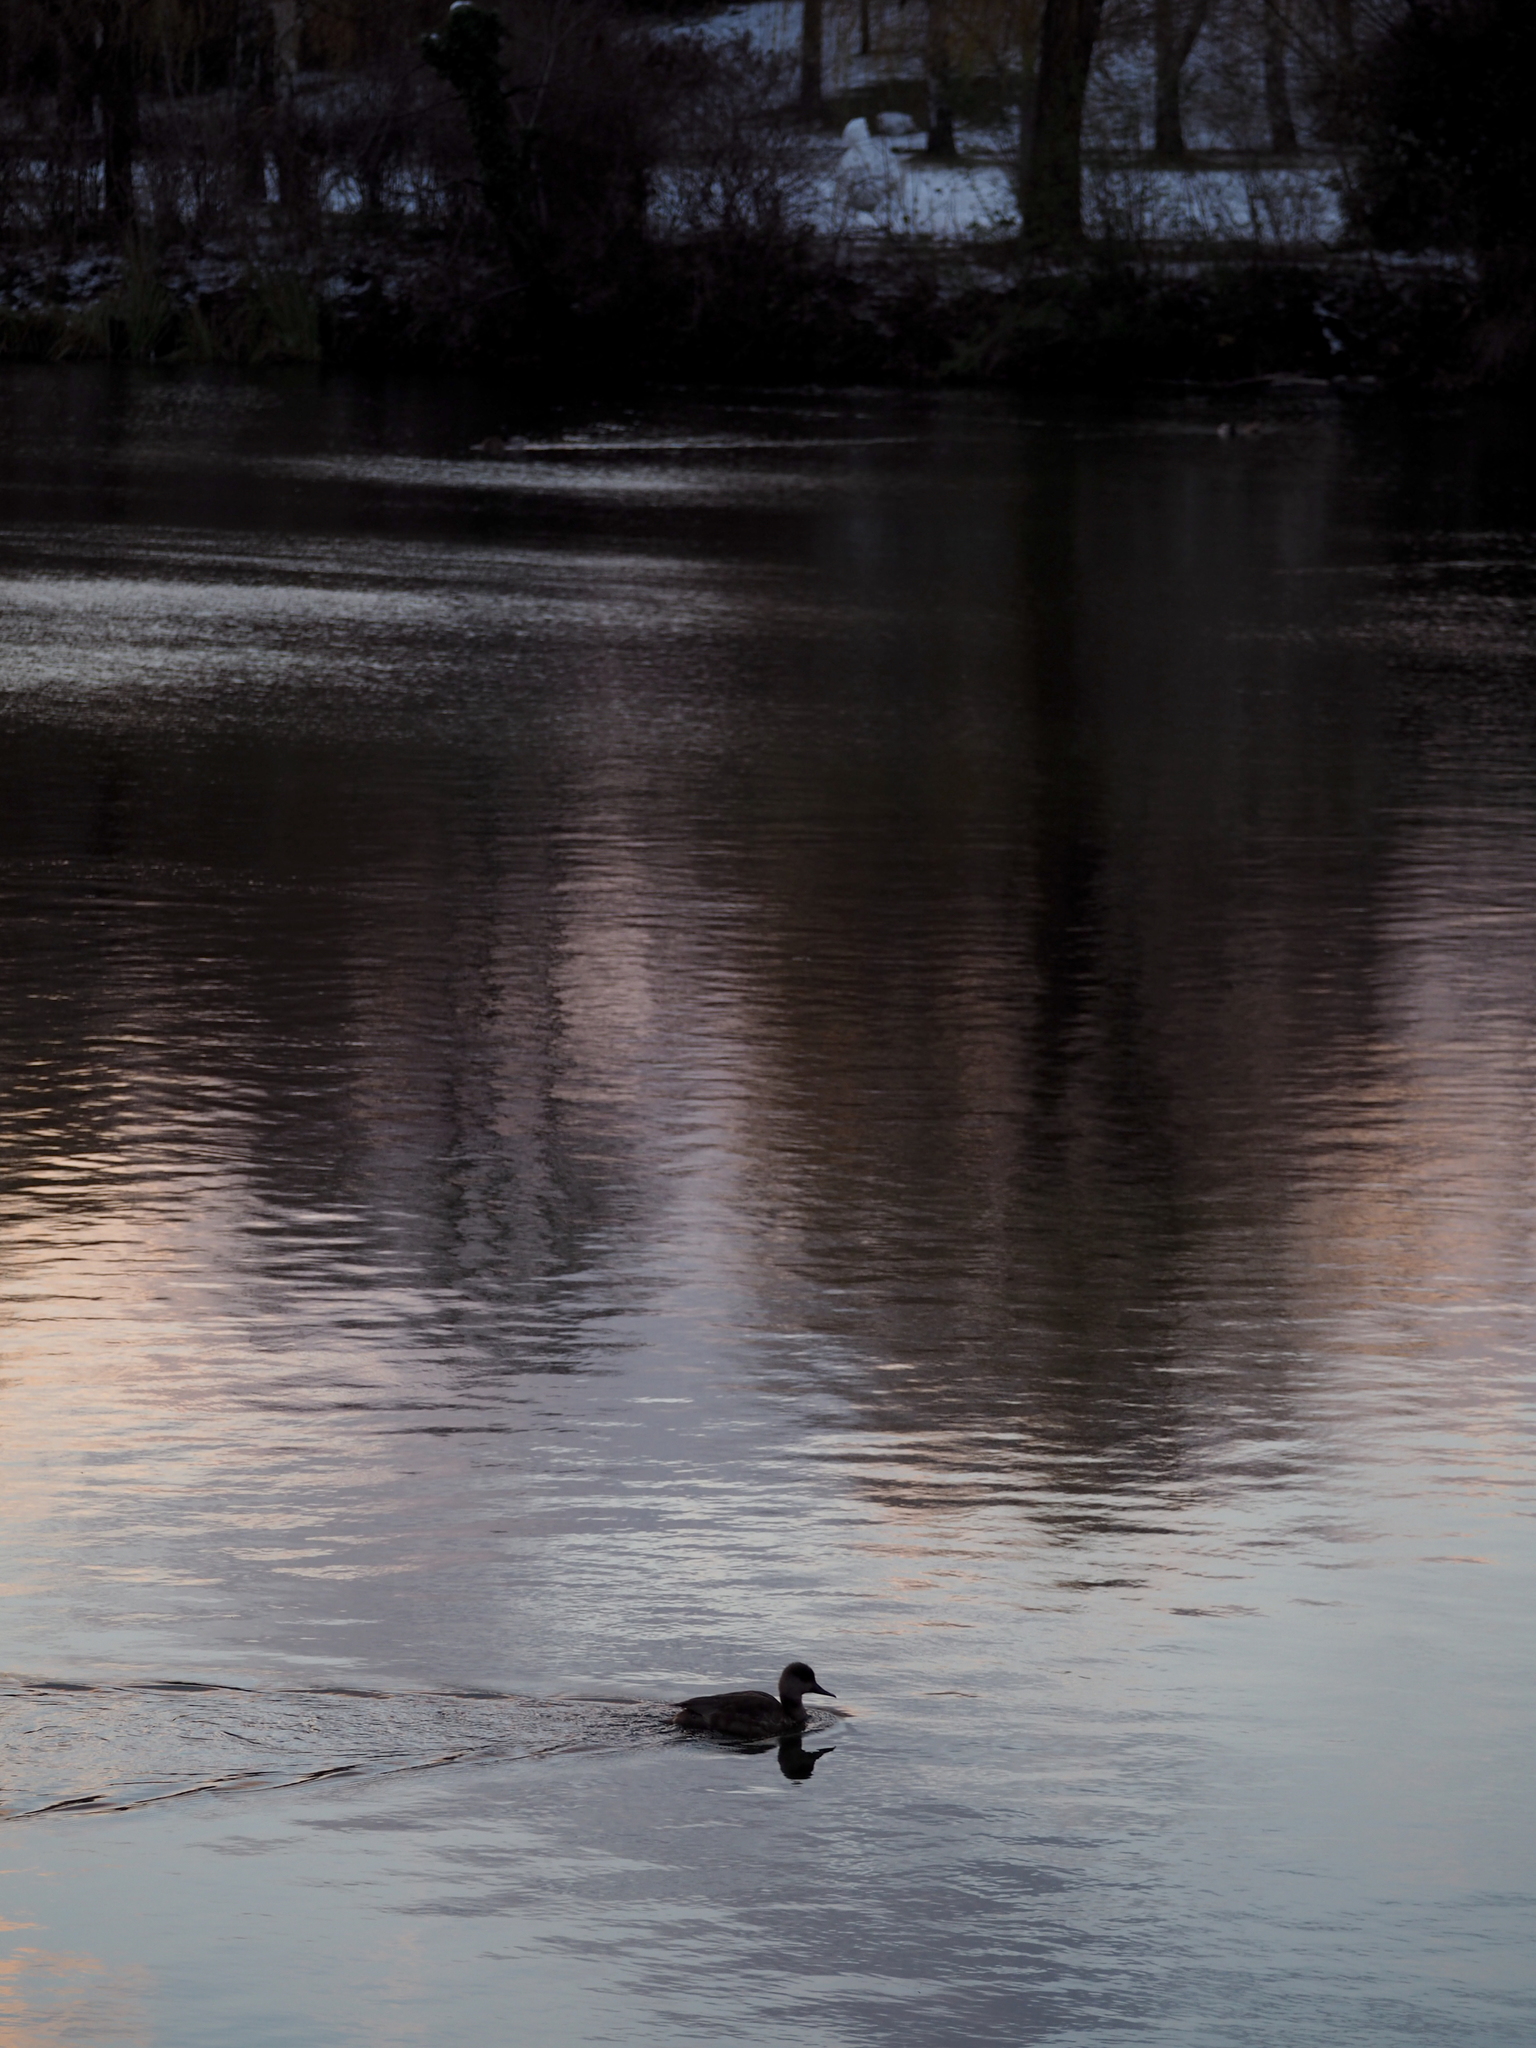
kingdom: Animalia
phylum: Chordata
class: Aves
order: Anseriformes
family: Anatidae
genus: Netta
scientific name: Netta rufina
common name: Red-crested pochard
